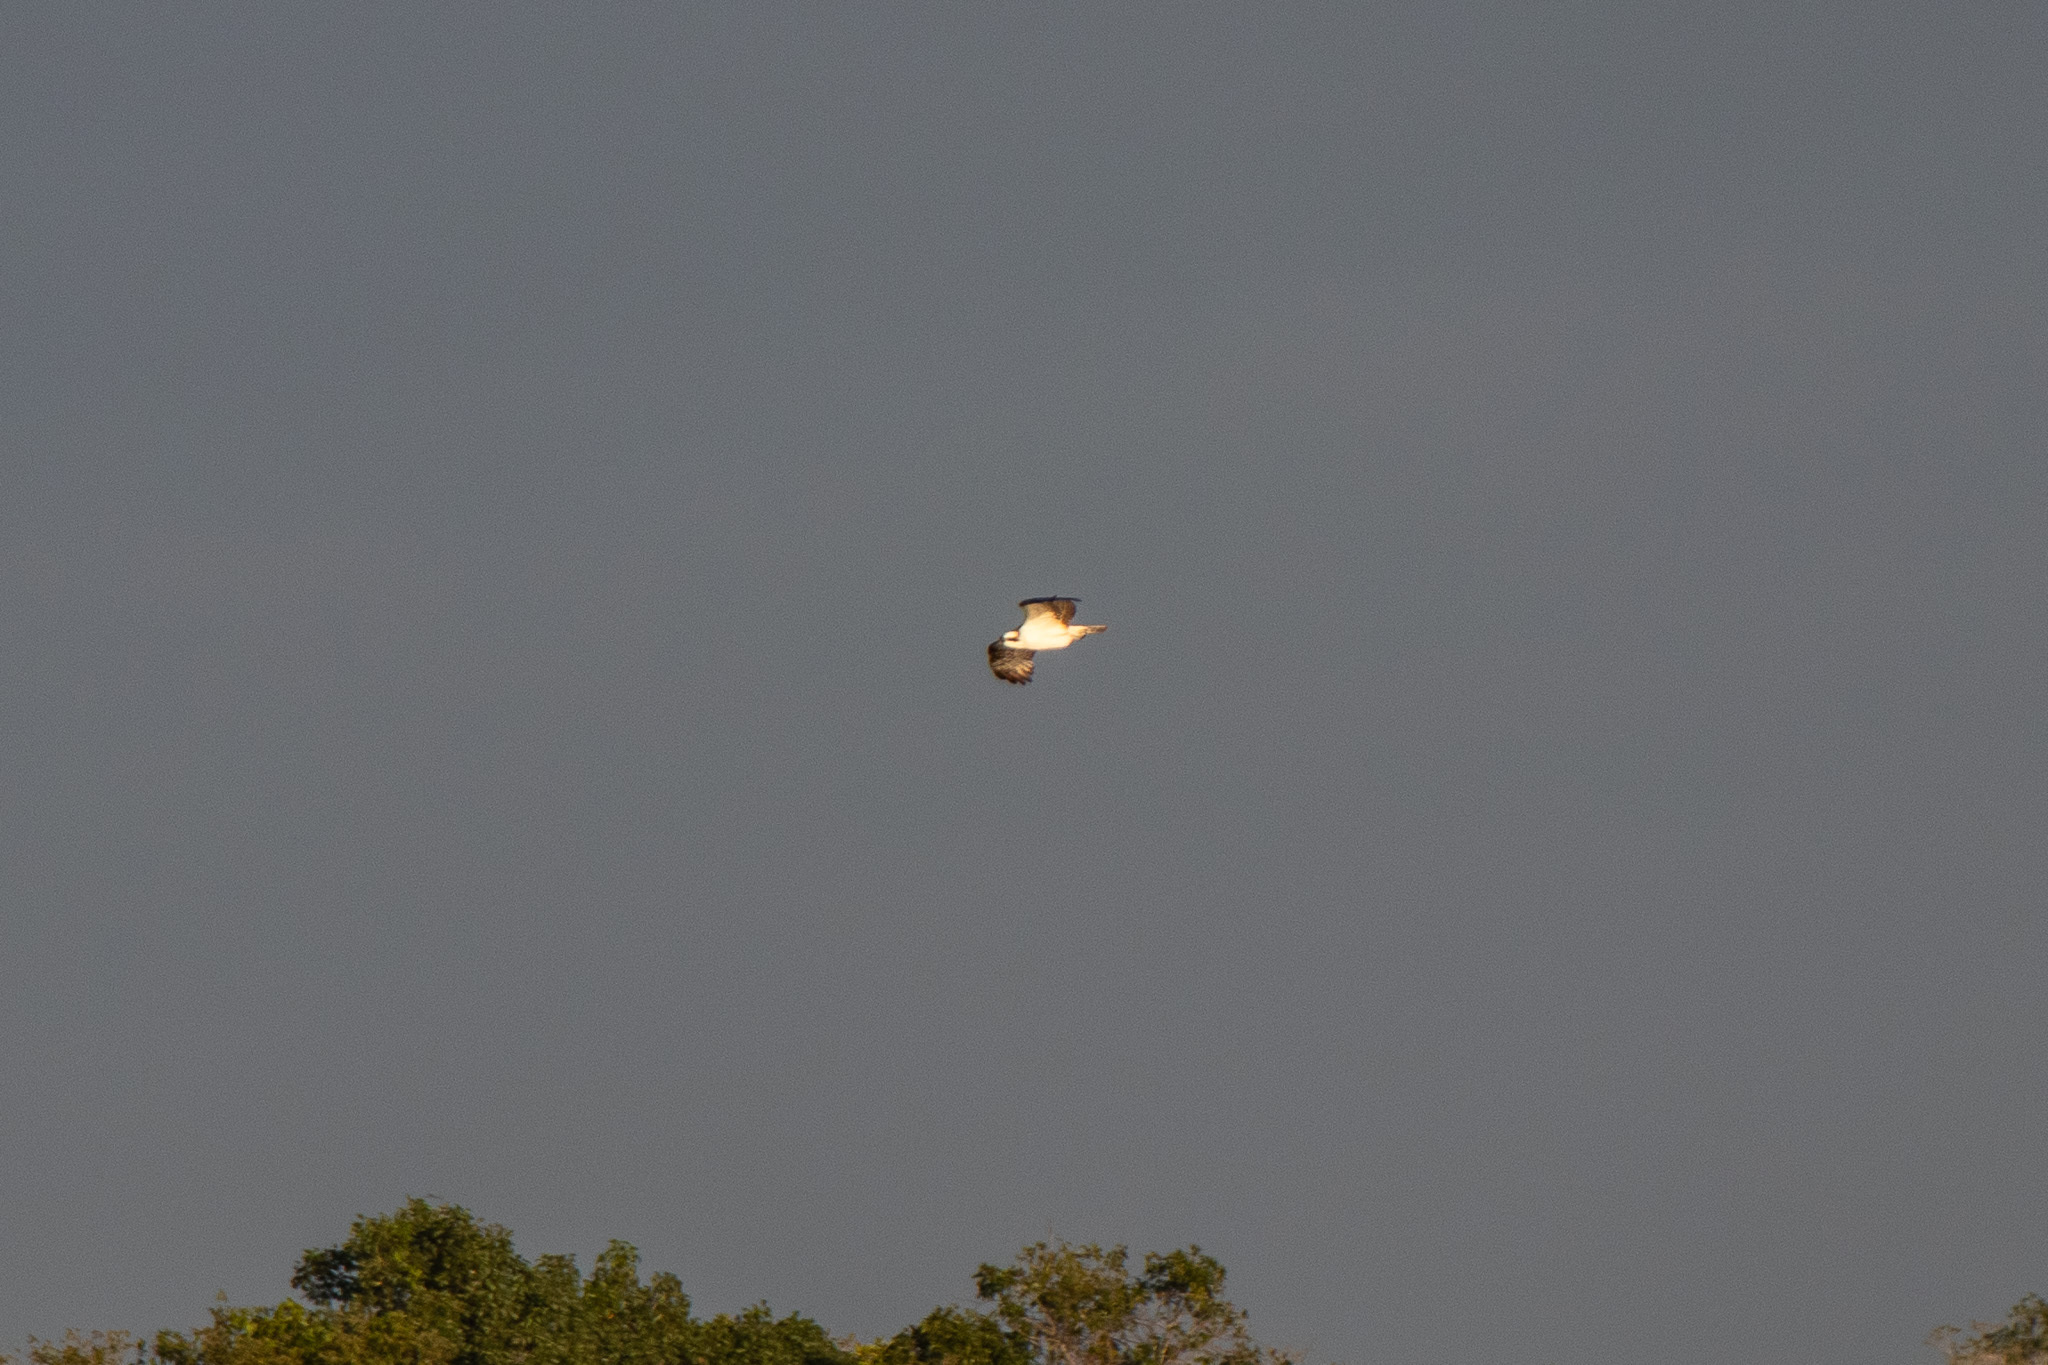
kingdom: Animalia
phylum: Chordata
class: Aves
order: Accipitriformes
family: Pandionidae
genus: Pandion
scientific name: Pandion haliaetus
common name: Osprey
